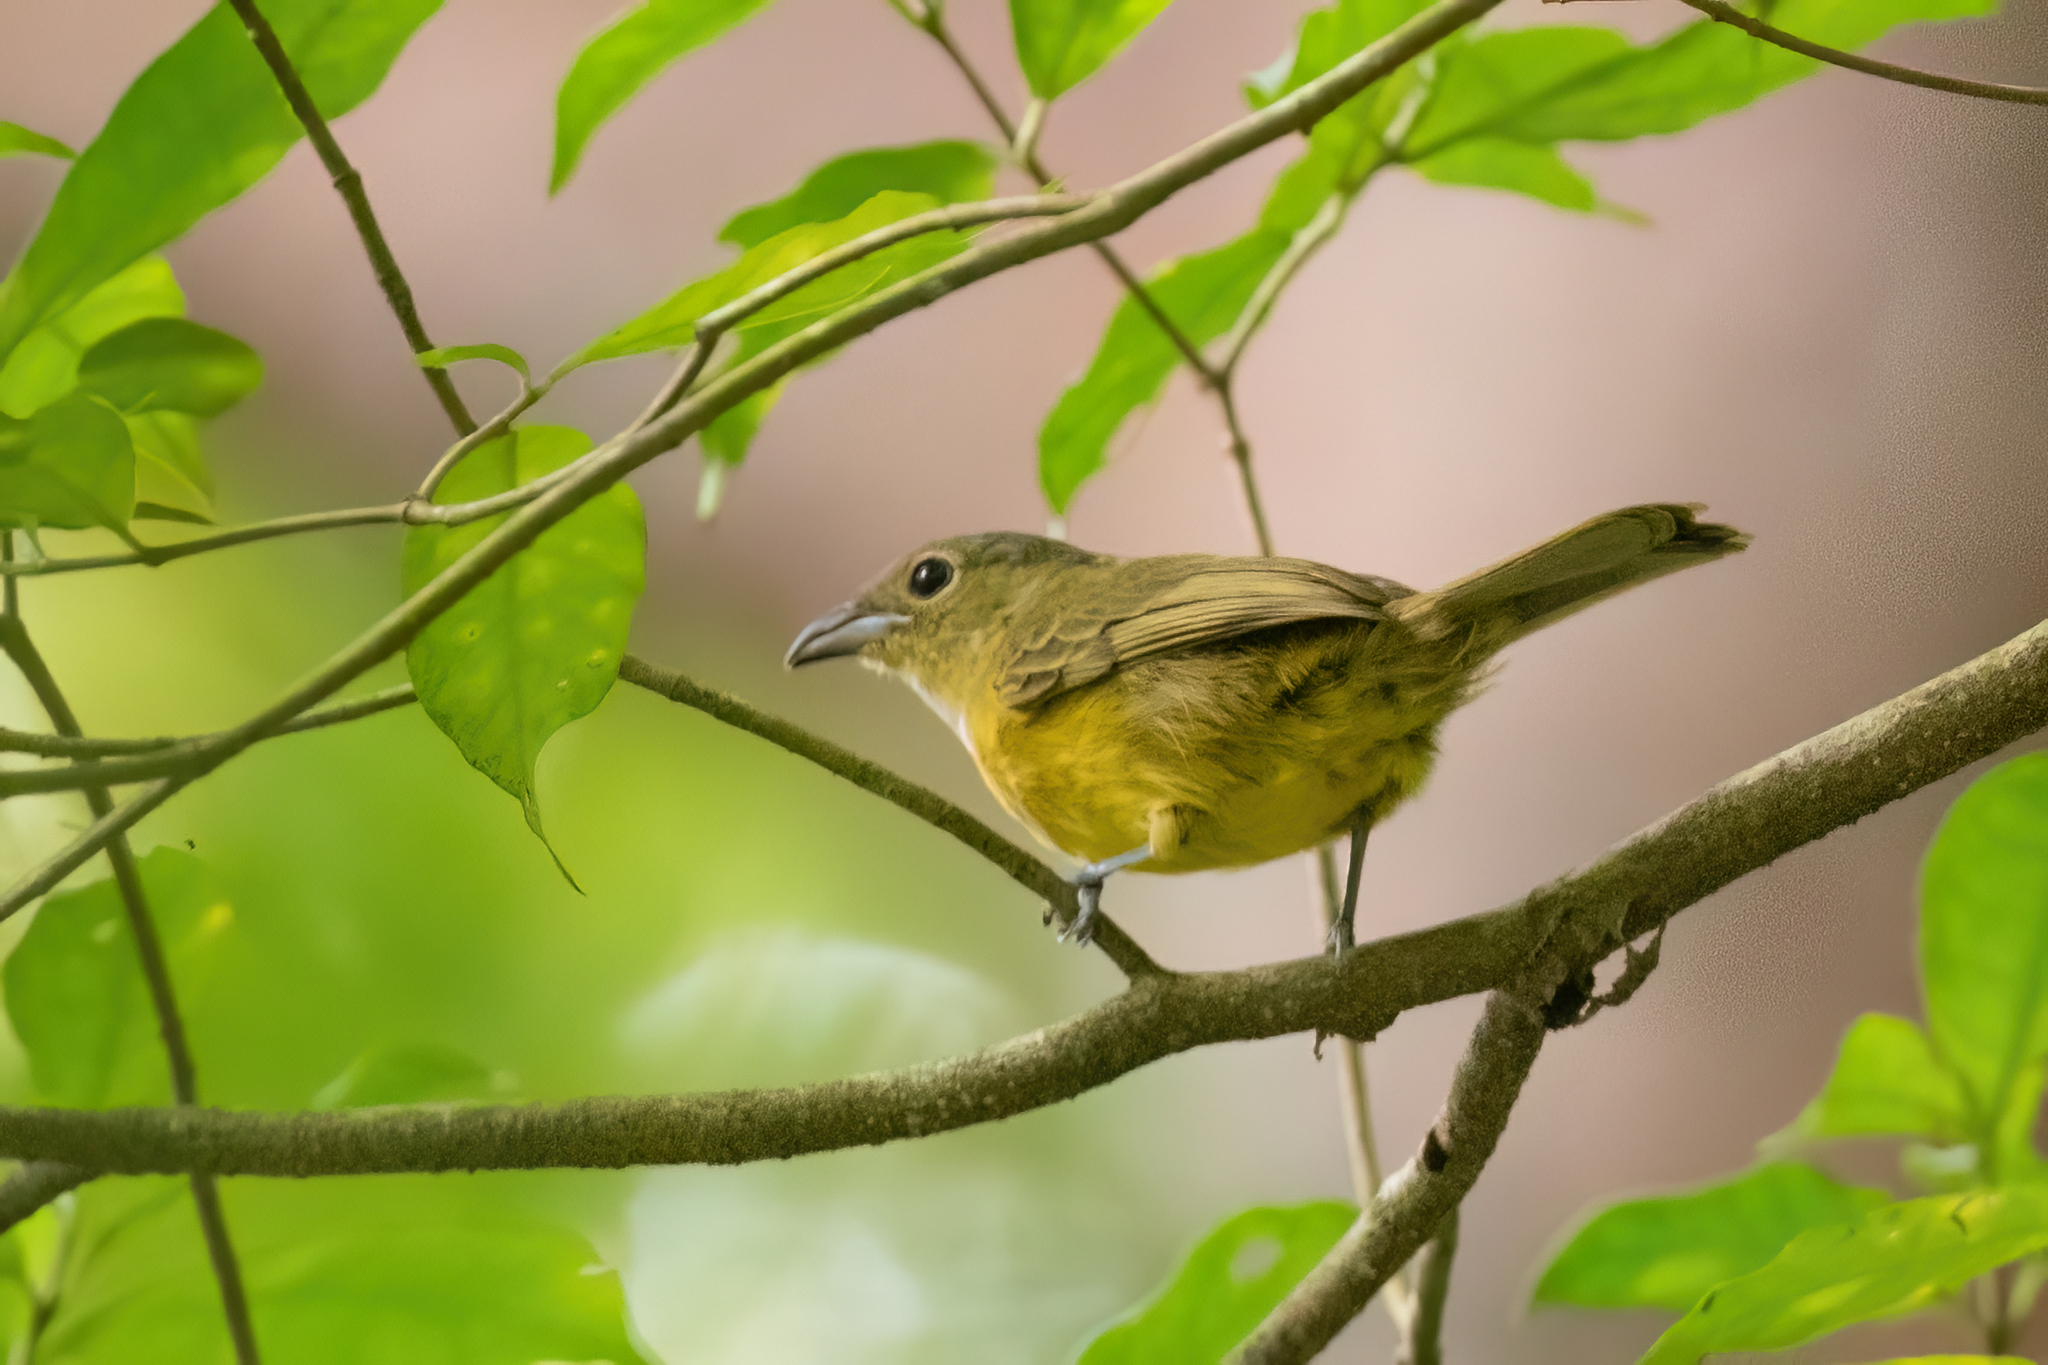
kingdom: Animalia
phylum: Chordata
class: Aves
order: Passeriformes
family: Thraupidae
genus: Loriotus
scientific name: Loriotus luctuosus
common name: White-shouldered tanager
